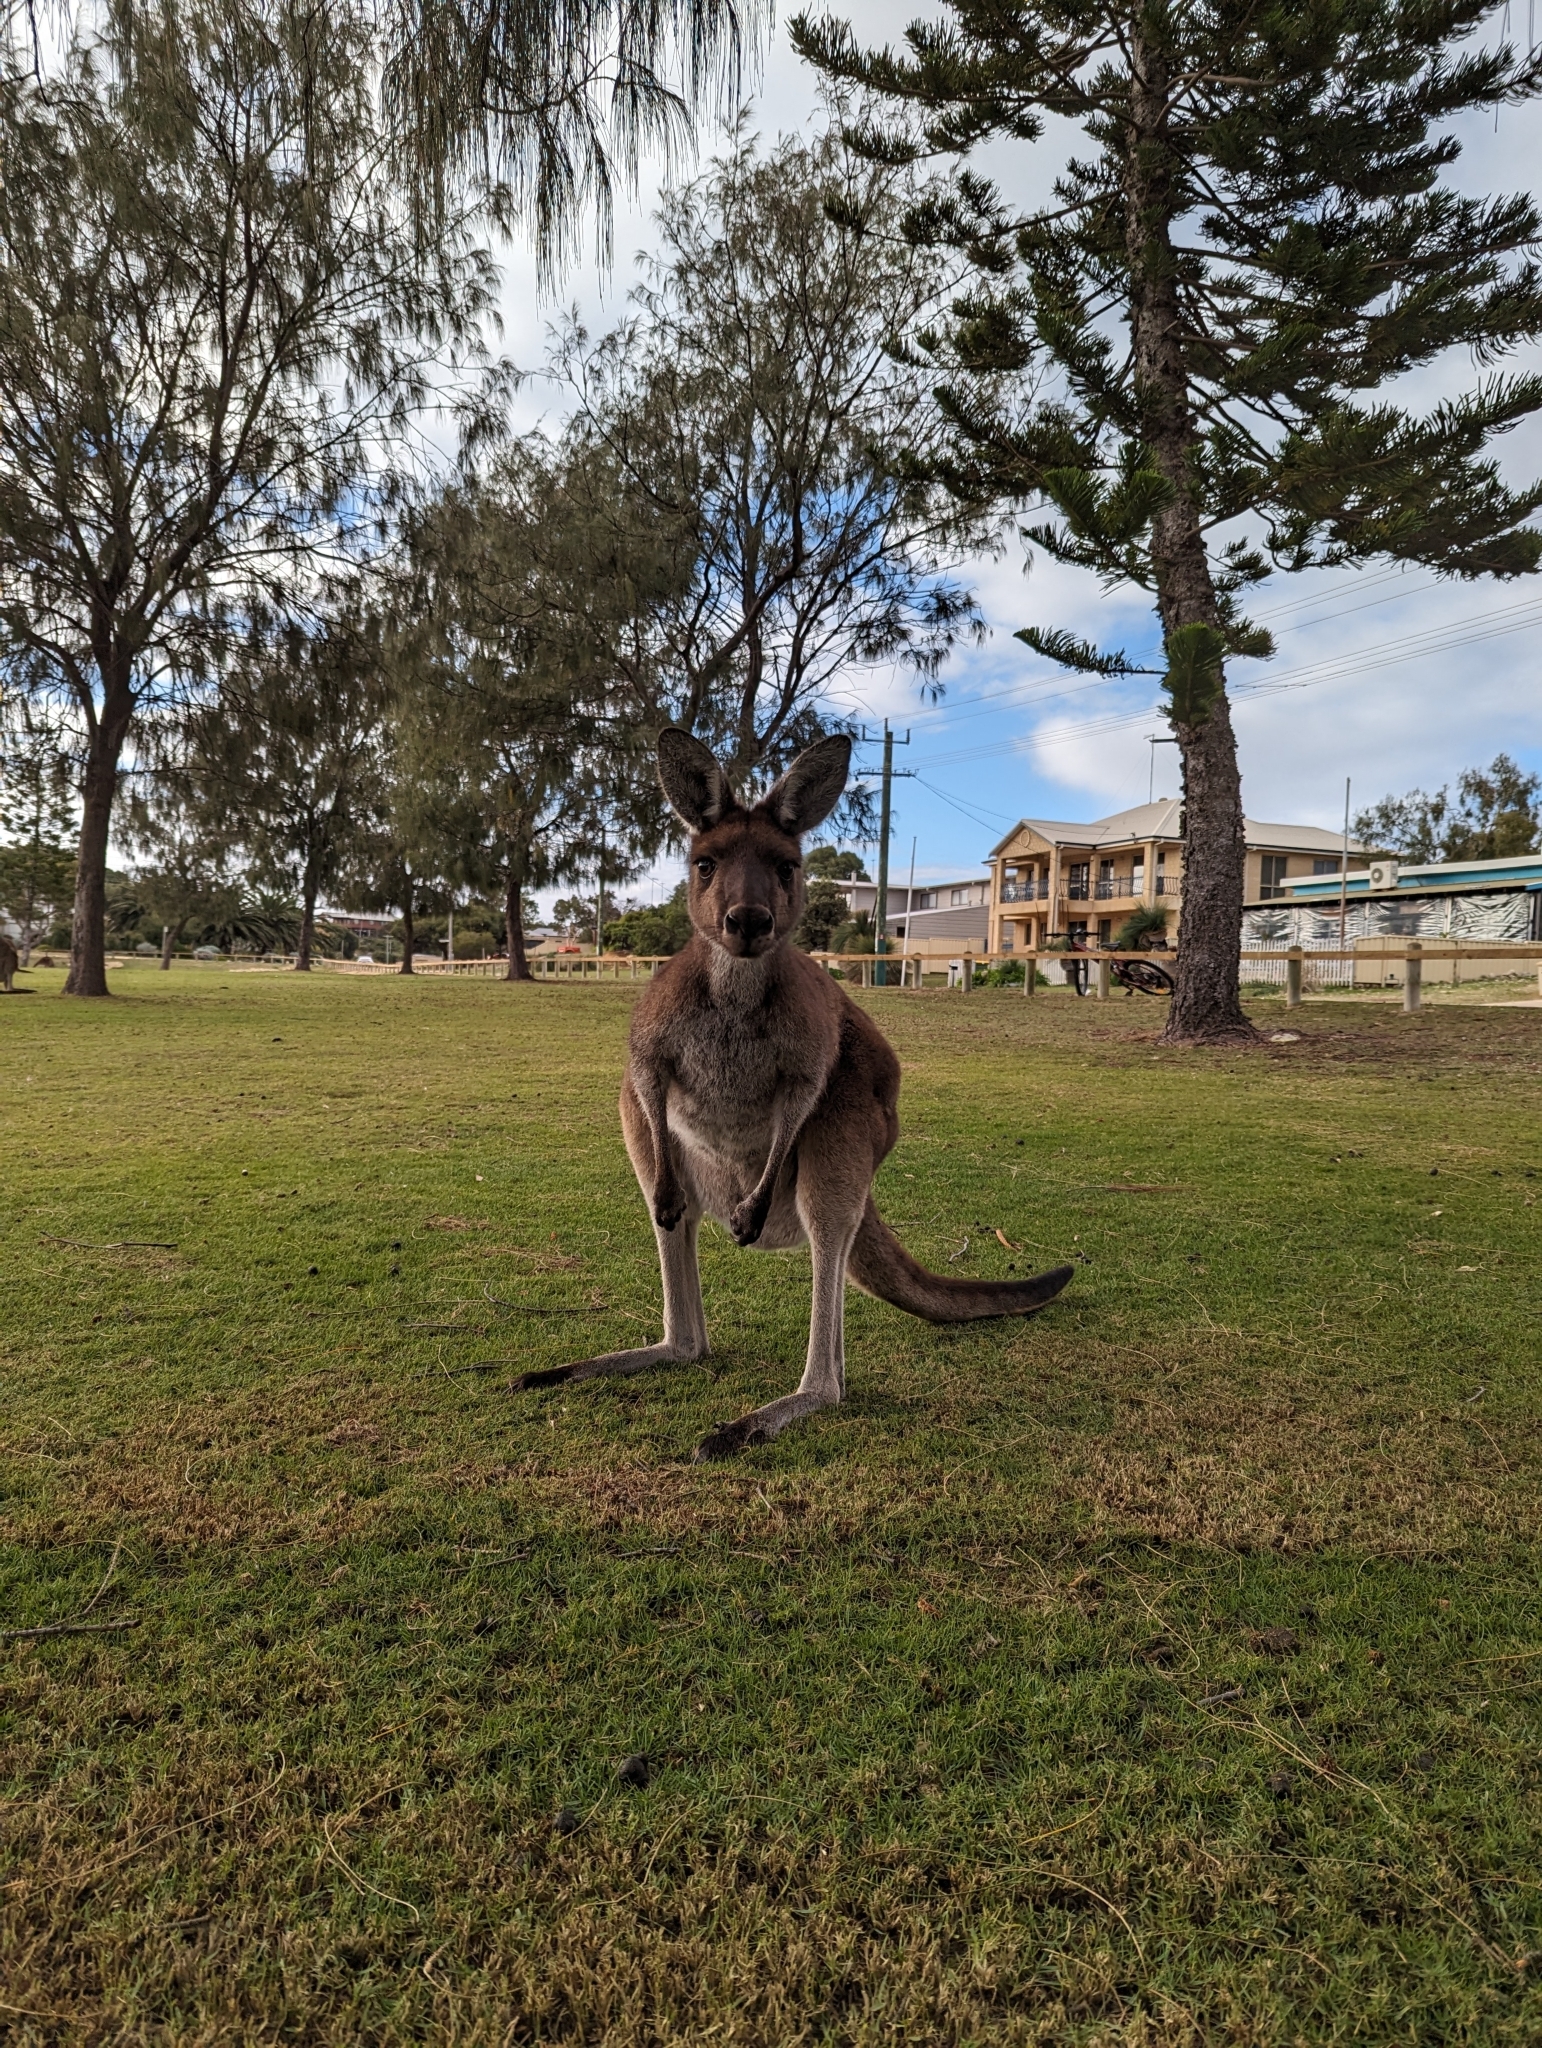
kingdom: Animalia
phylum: Chordata
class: Mammalia
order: Diprotodontia
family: Macropodidae
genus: Macropus
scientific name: Macropus fuliginosus
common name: Western grey kangaroo
